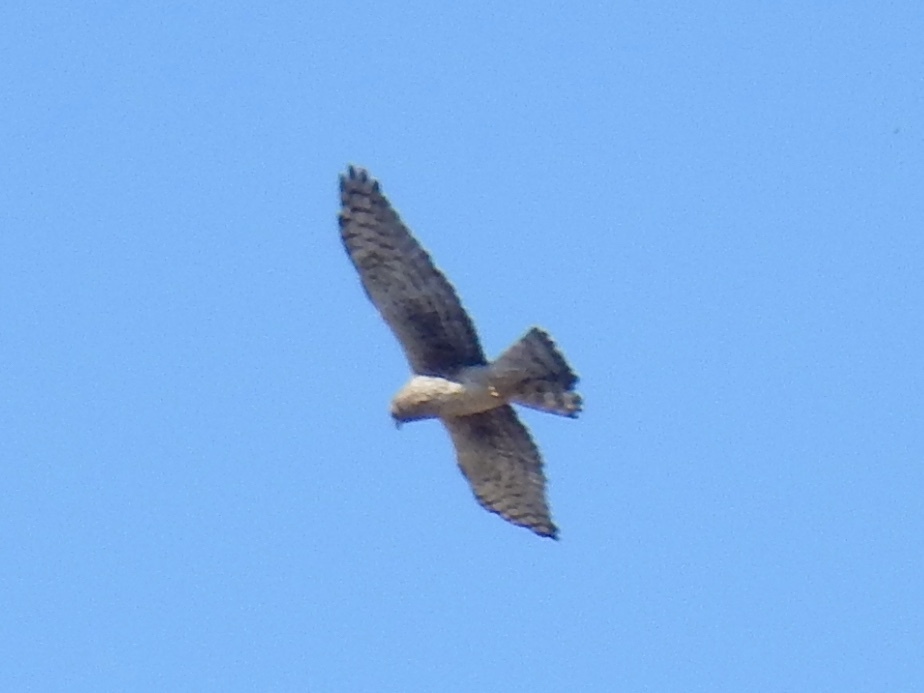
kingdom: Animalia
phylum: Chordata
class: Aves
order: Accipitriformes
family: Accipitridae
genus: Circus
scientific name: Circus cyaneus
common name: Hen harrier
